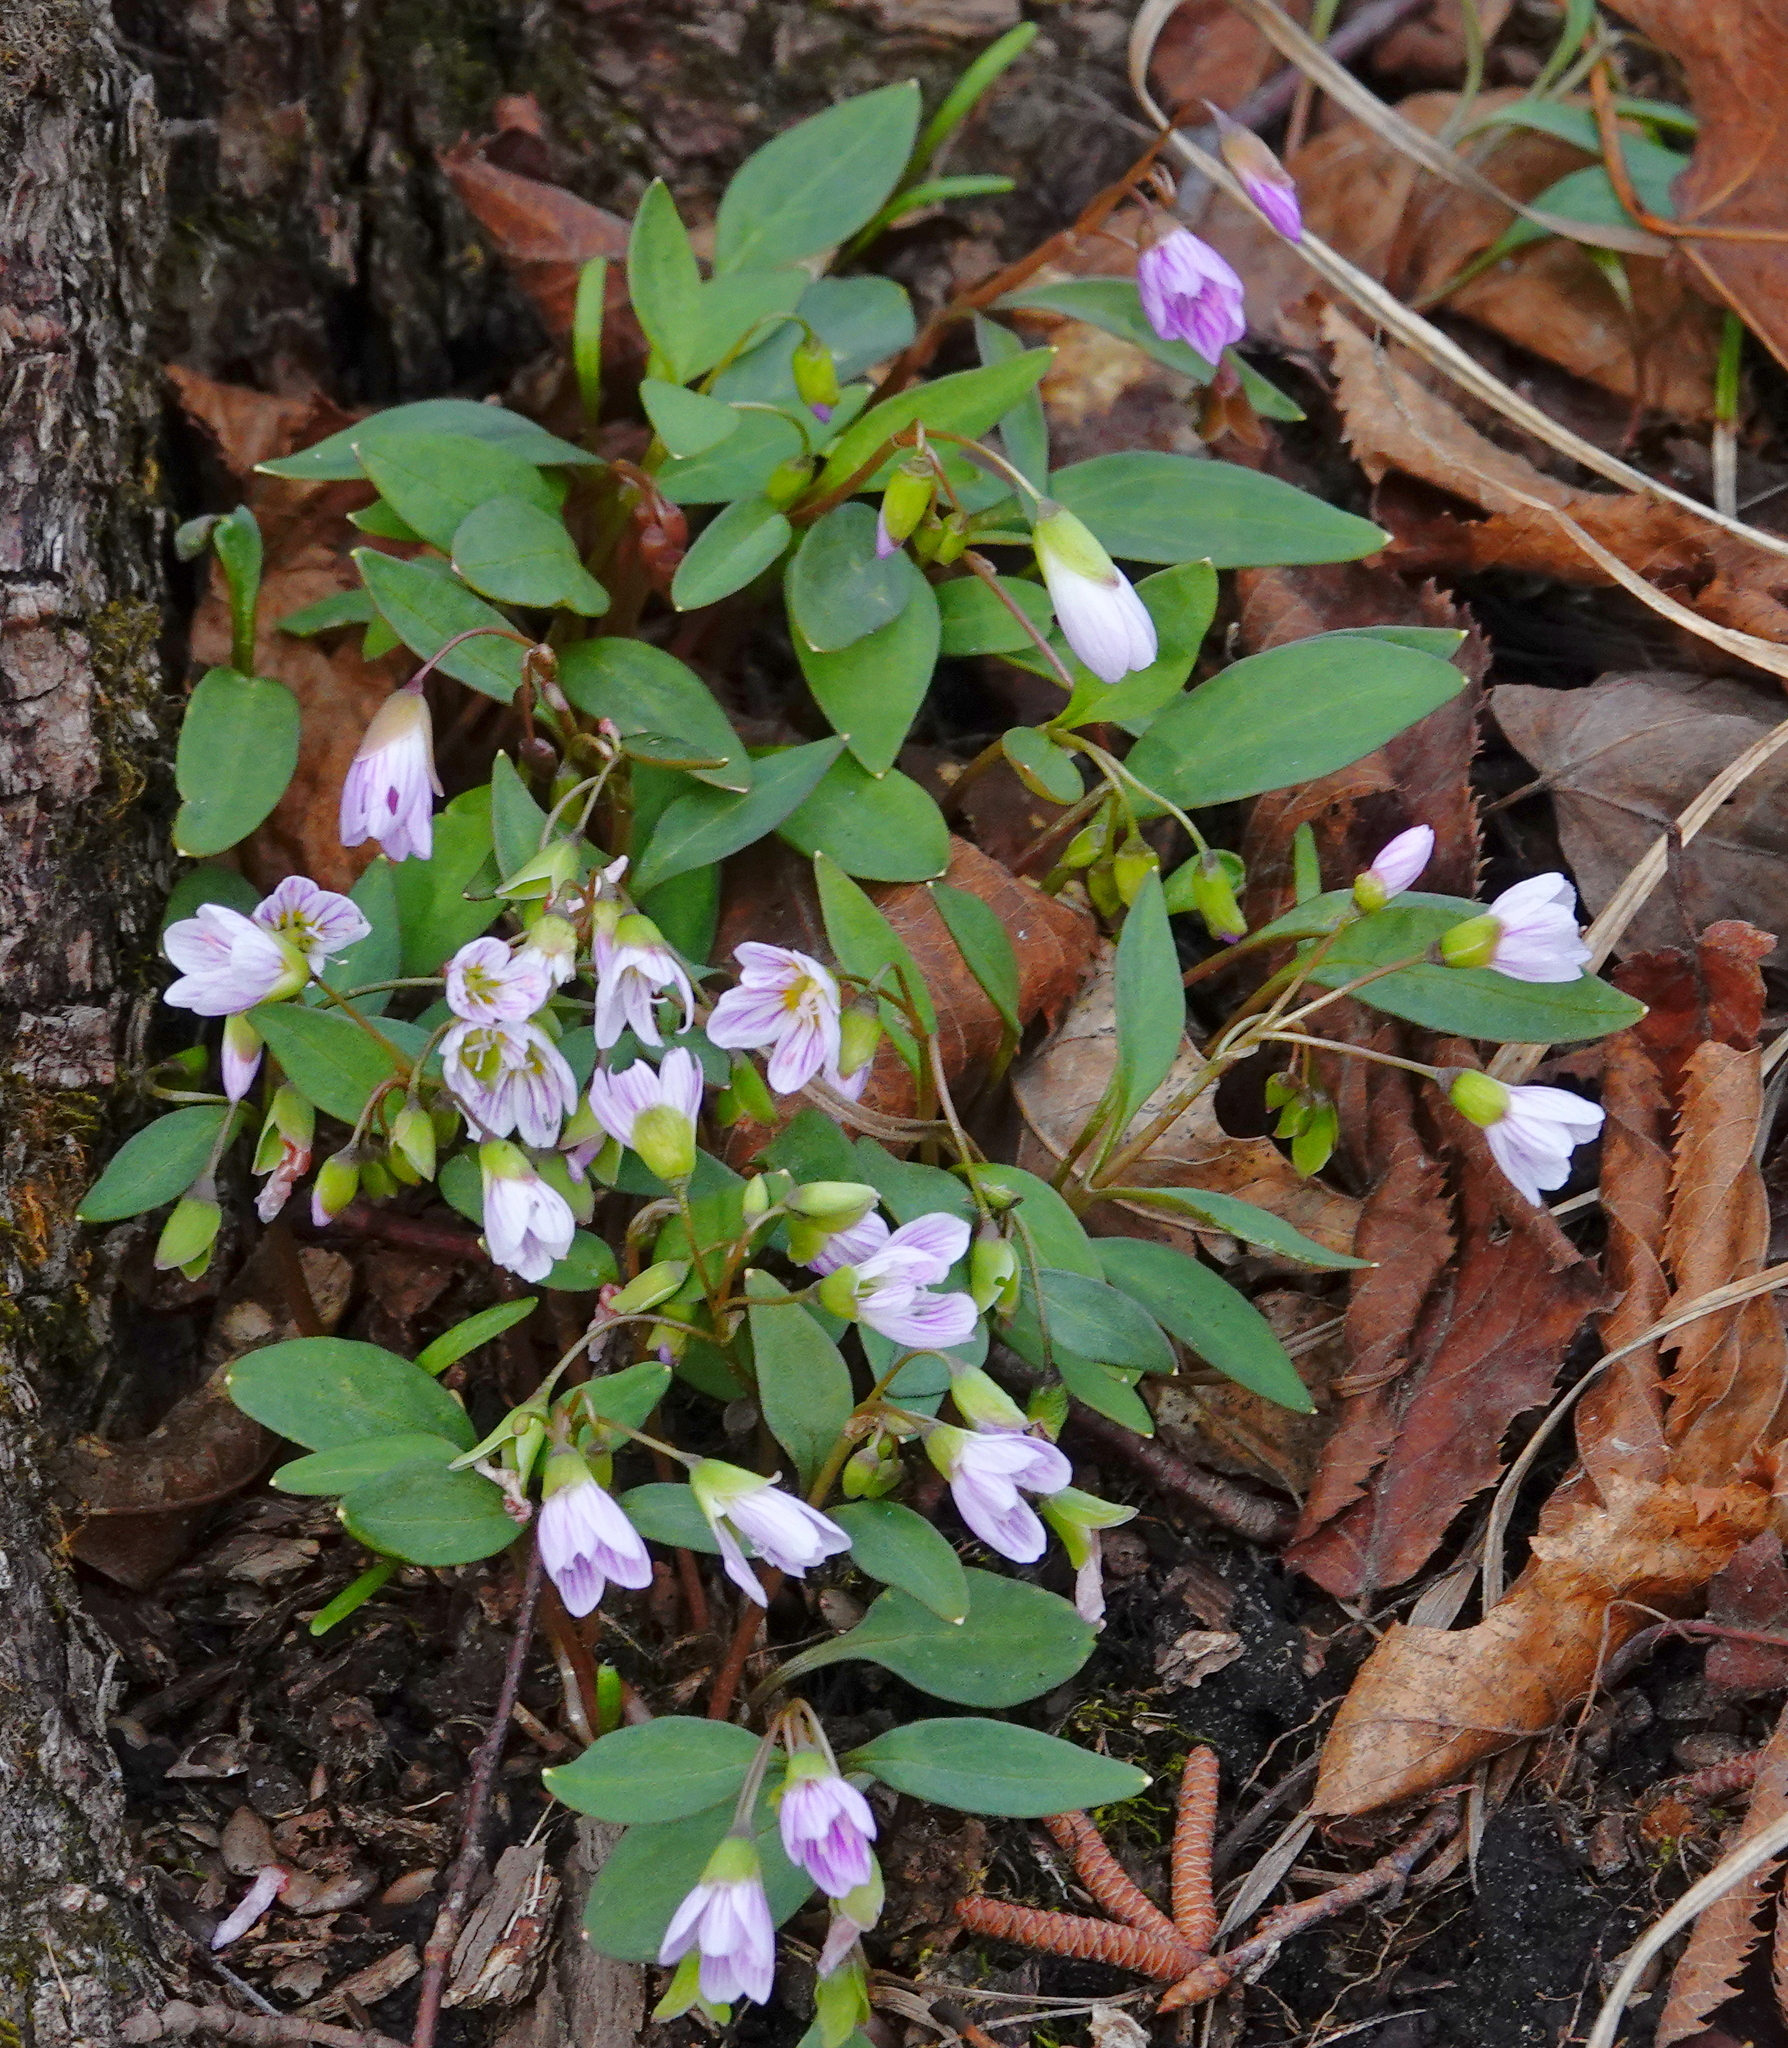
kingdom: Plantae
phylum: Tracheophyta
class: Magnoliopsida
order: Caryophyllales
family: Montiaceae
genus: Claytonia
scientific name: Claytonia caroliniana
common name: Carolina spring beauty
